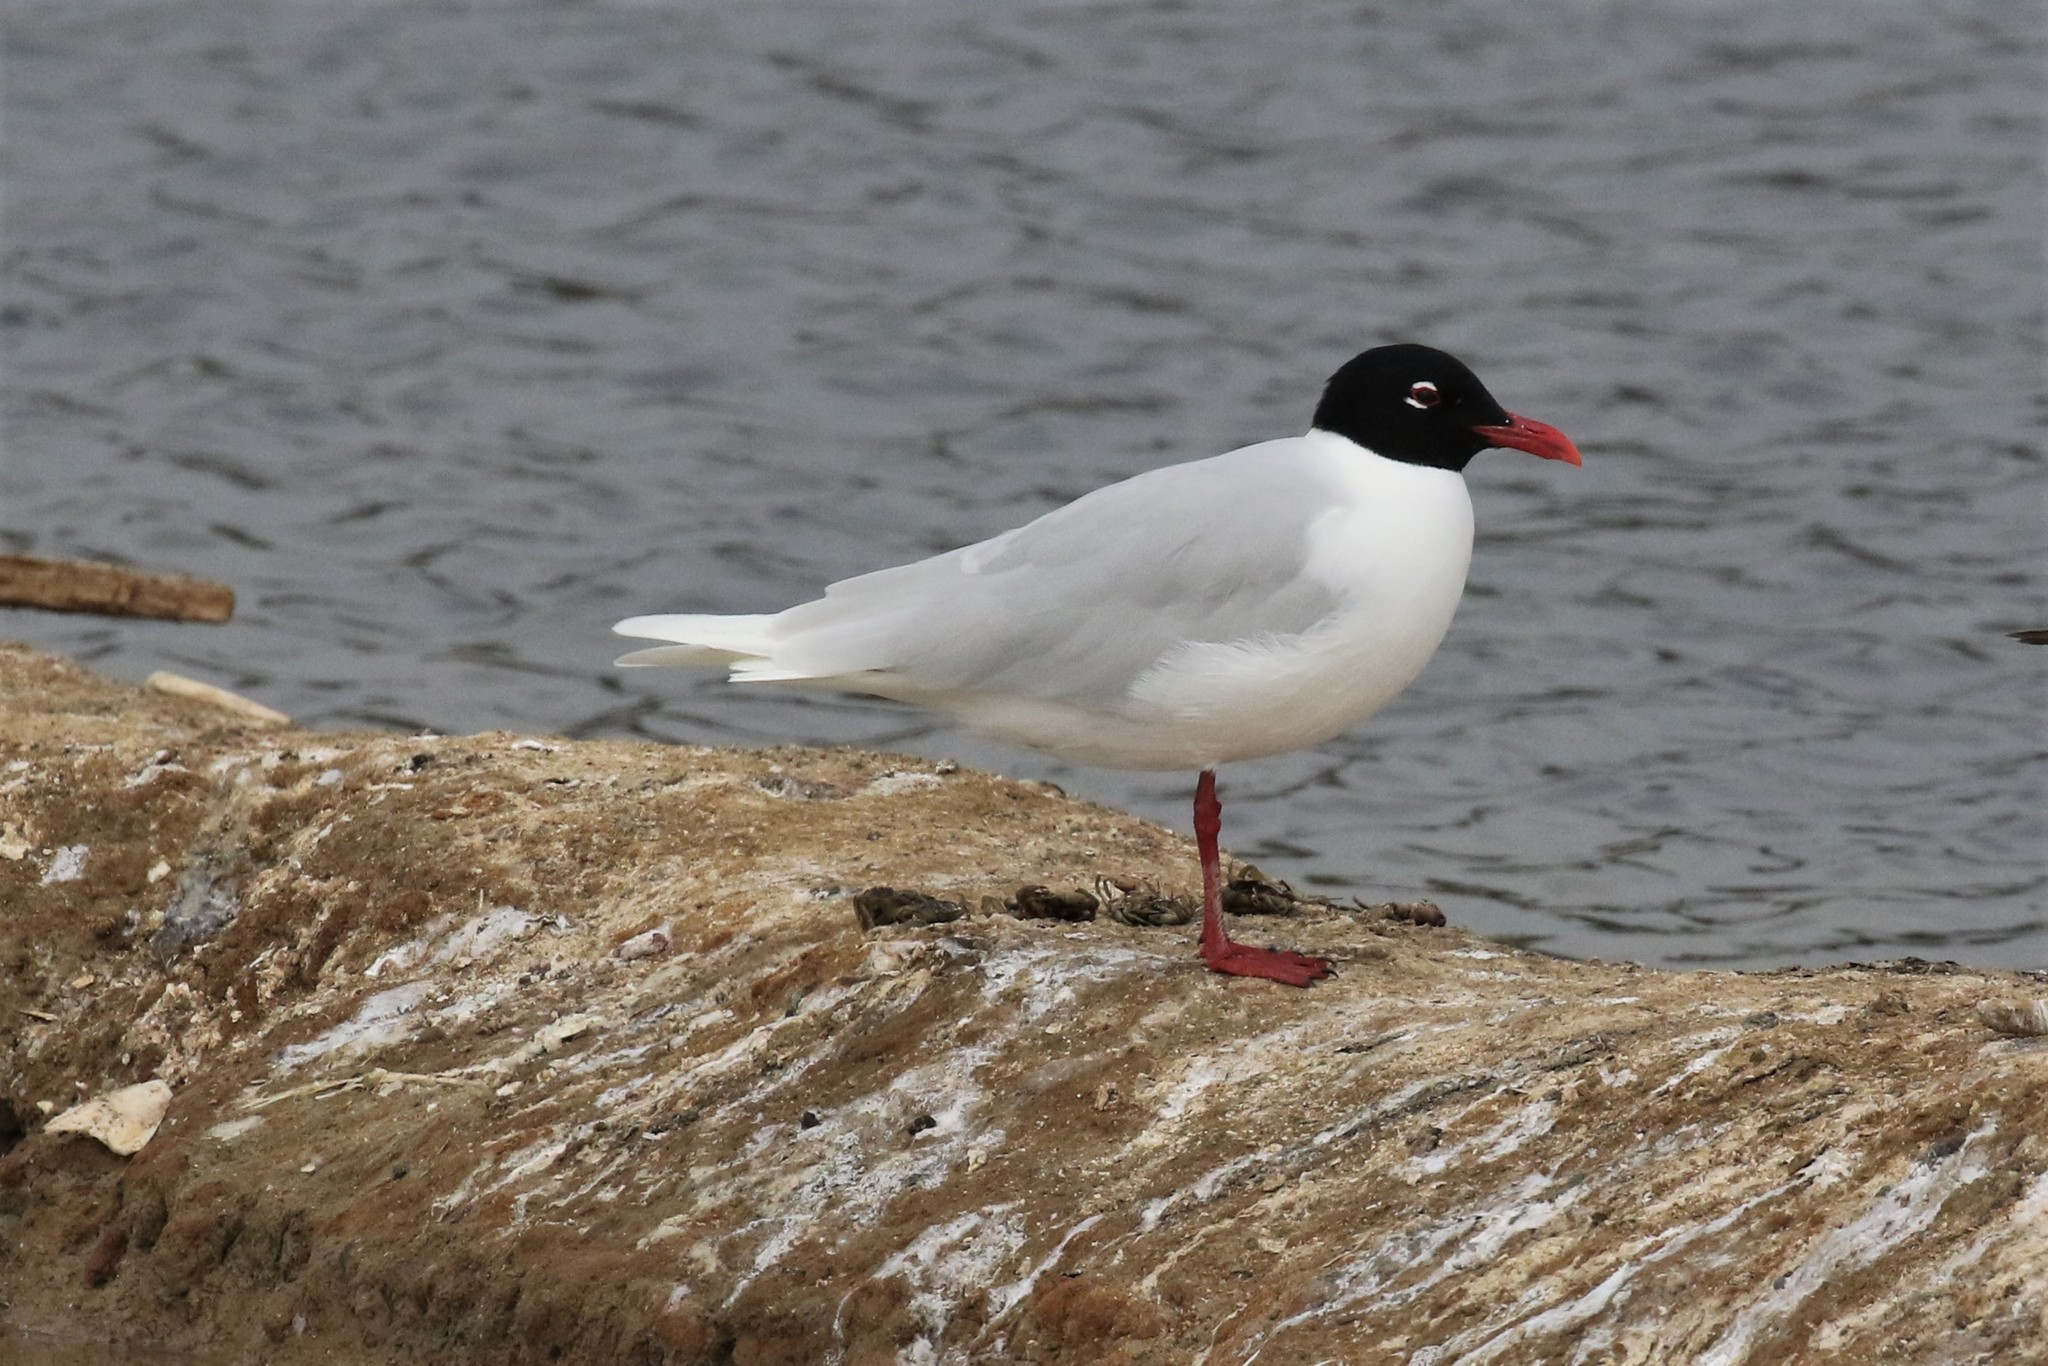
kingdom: Animalia
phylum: Chordata
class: Aves
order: Charadriiformes
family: Laridae
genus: Ichthyaetus
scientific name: Ichthyaetus melanocephalus
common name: Mediterranean gull
